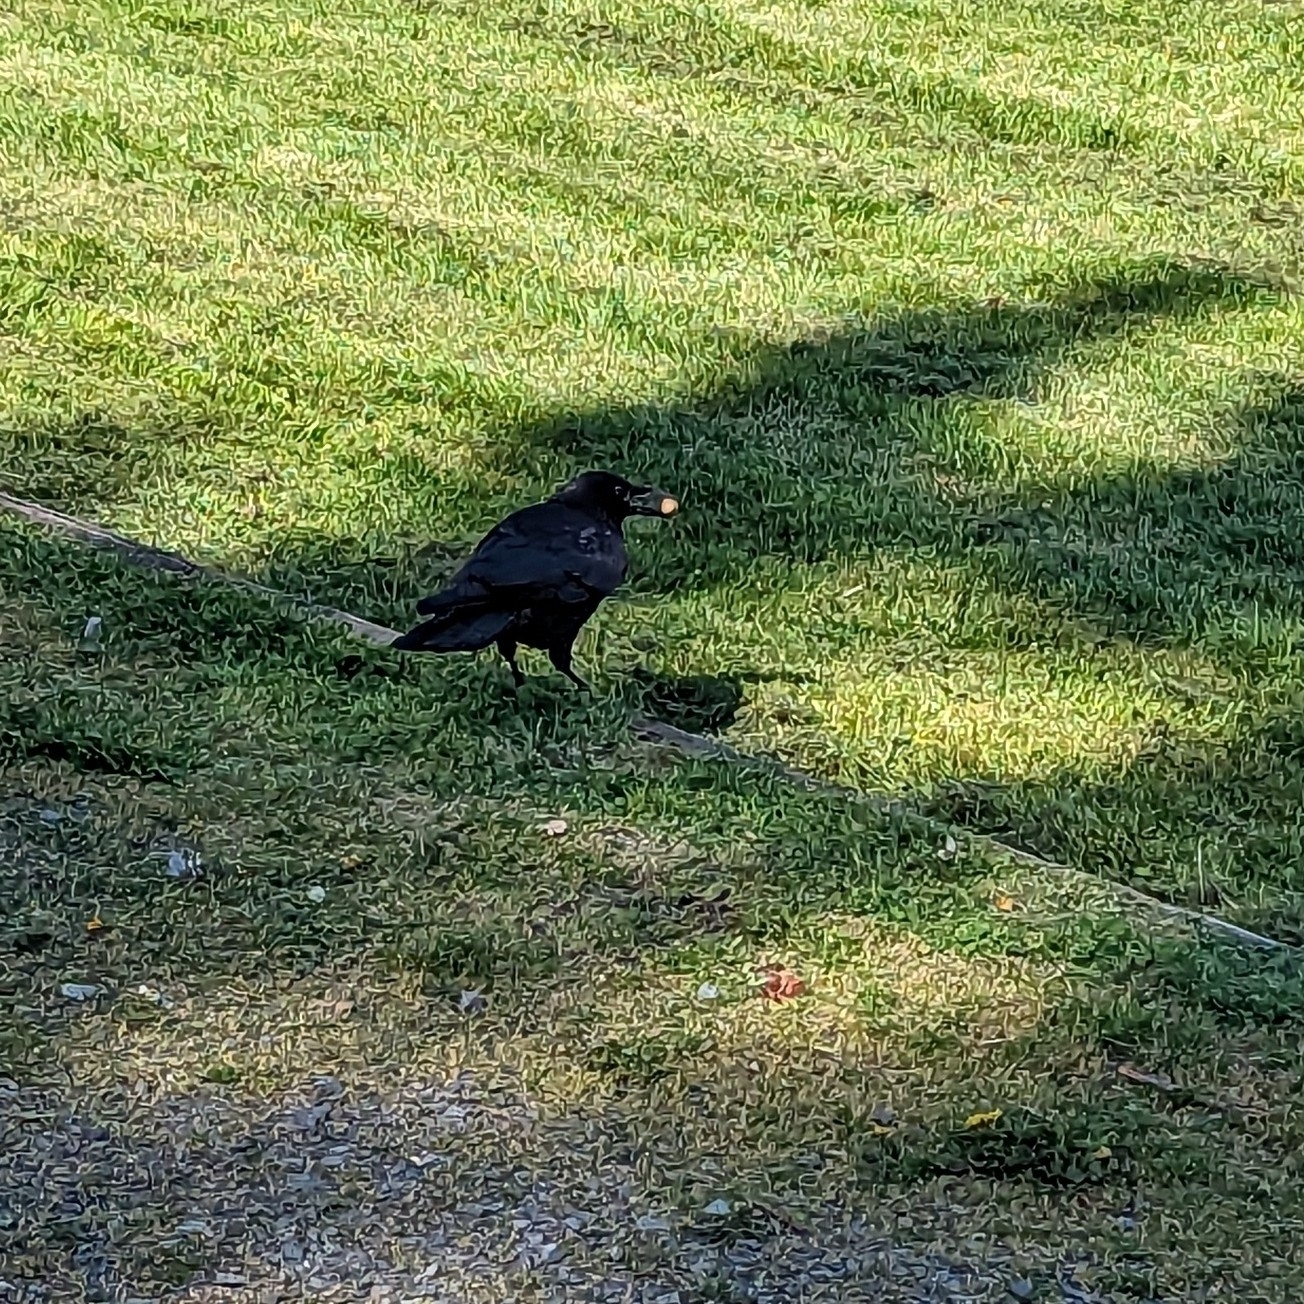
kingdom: Animalia
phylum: Chordata
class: Aves
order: Passeriformes
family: Corvidae
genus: Corvus
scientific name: Corvus brachyrhynchos
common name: American crow
